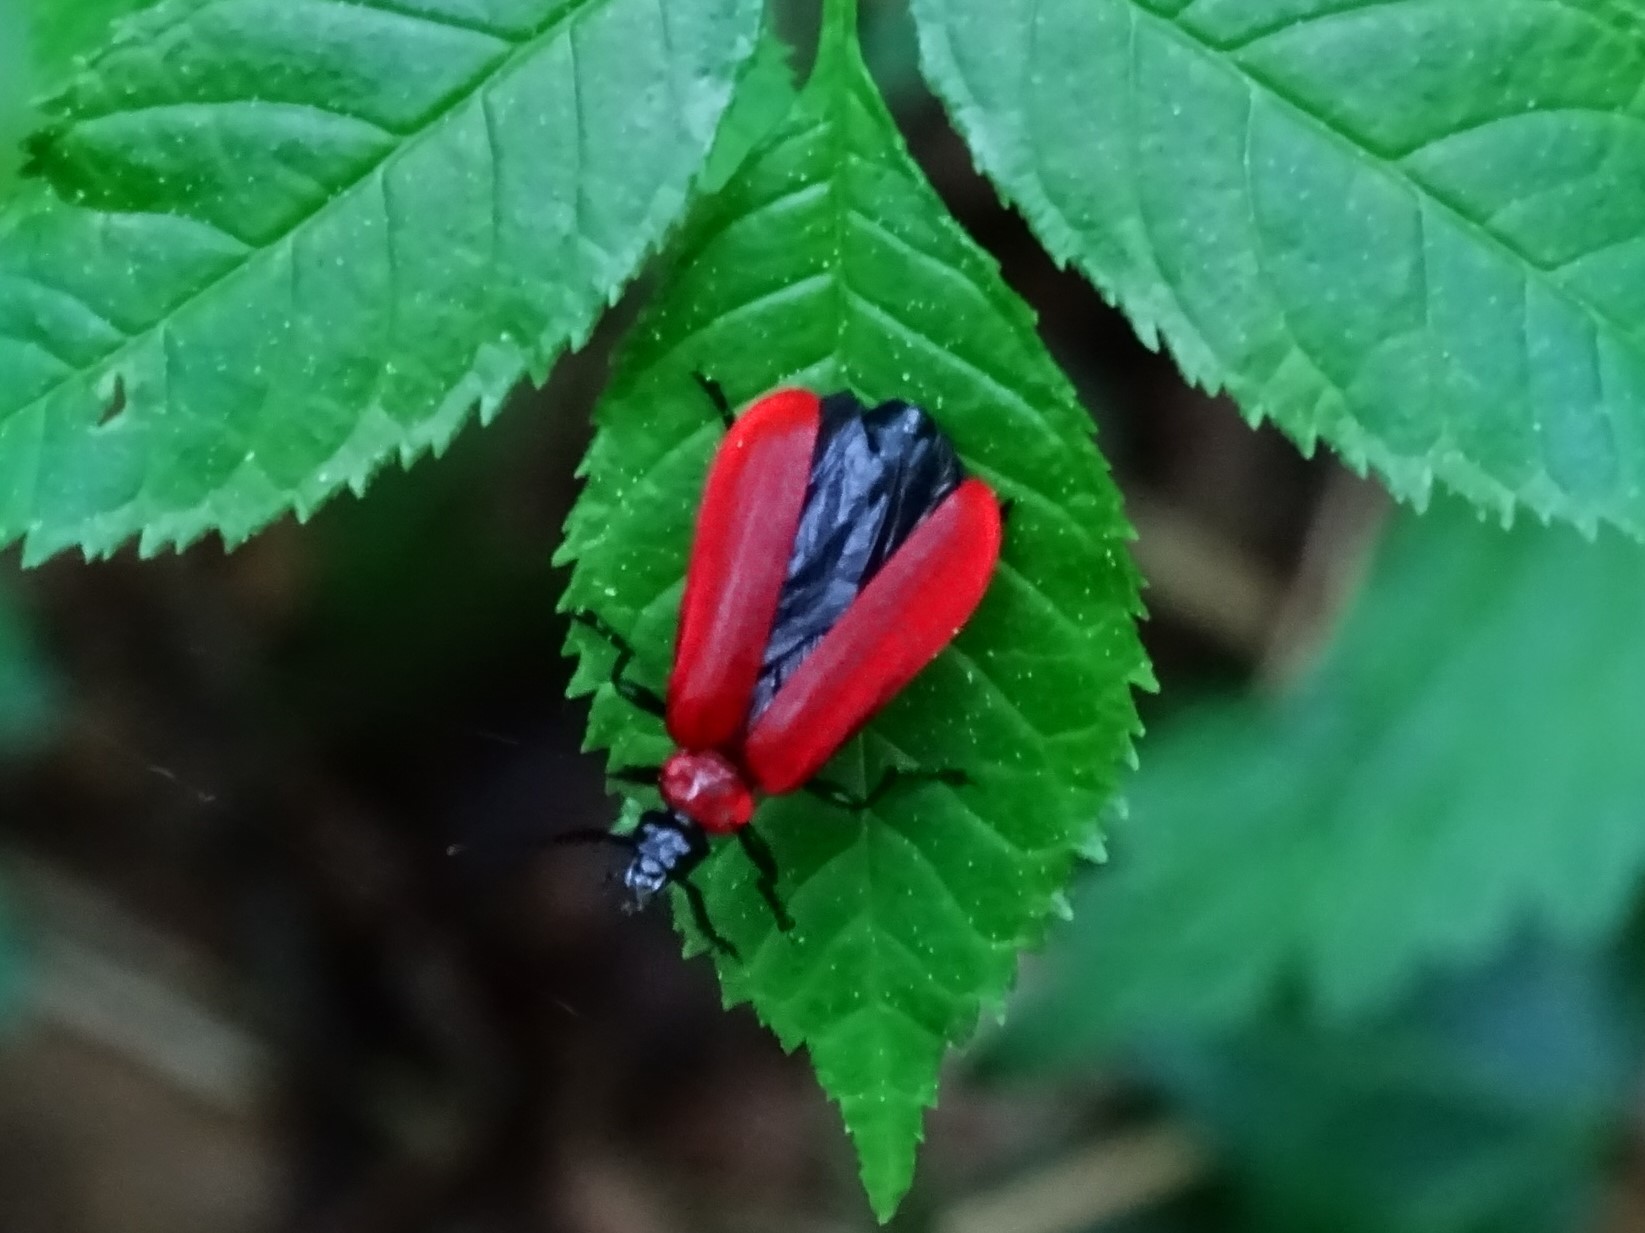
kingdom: Animalia
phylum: Arthropoda
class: Insecta
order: Coleoptera
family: Pyrochroidae
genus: Pyrochroa
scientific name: Pyrochroa coccinea
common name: Black-headed cardinal beetle
